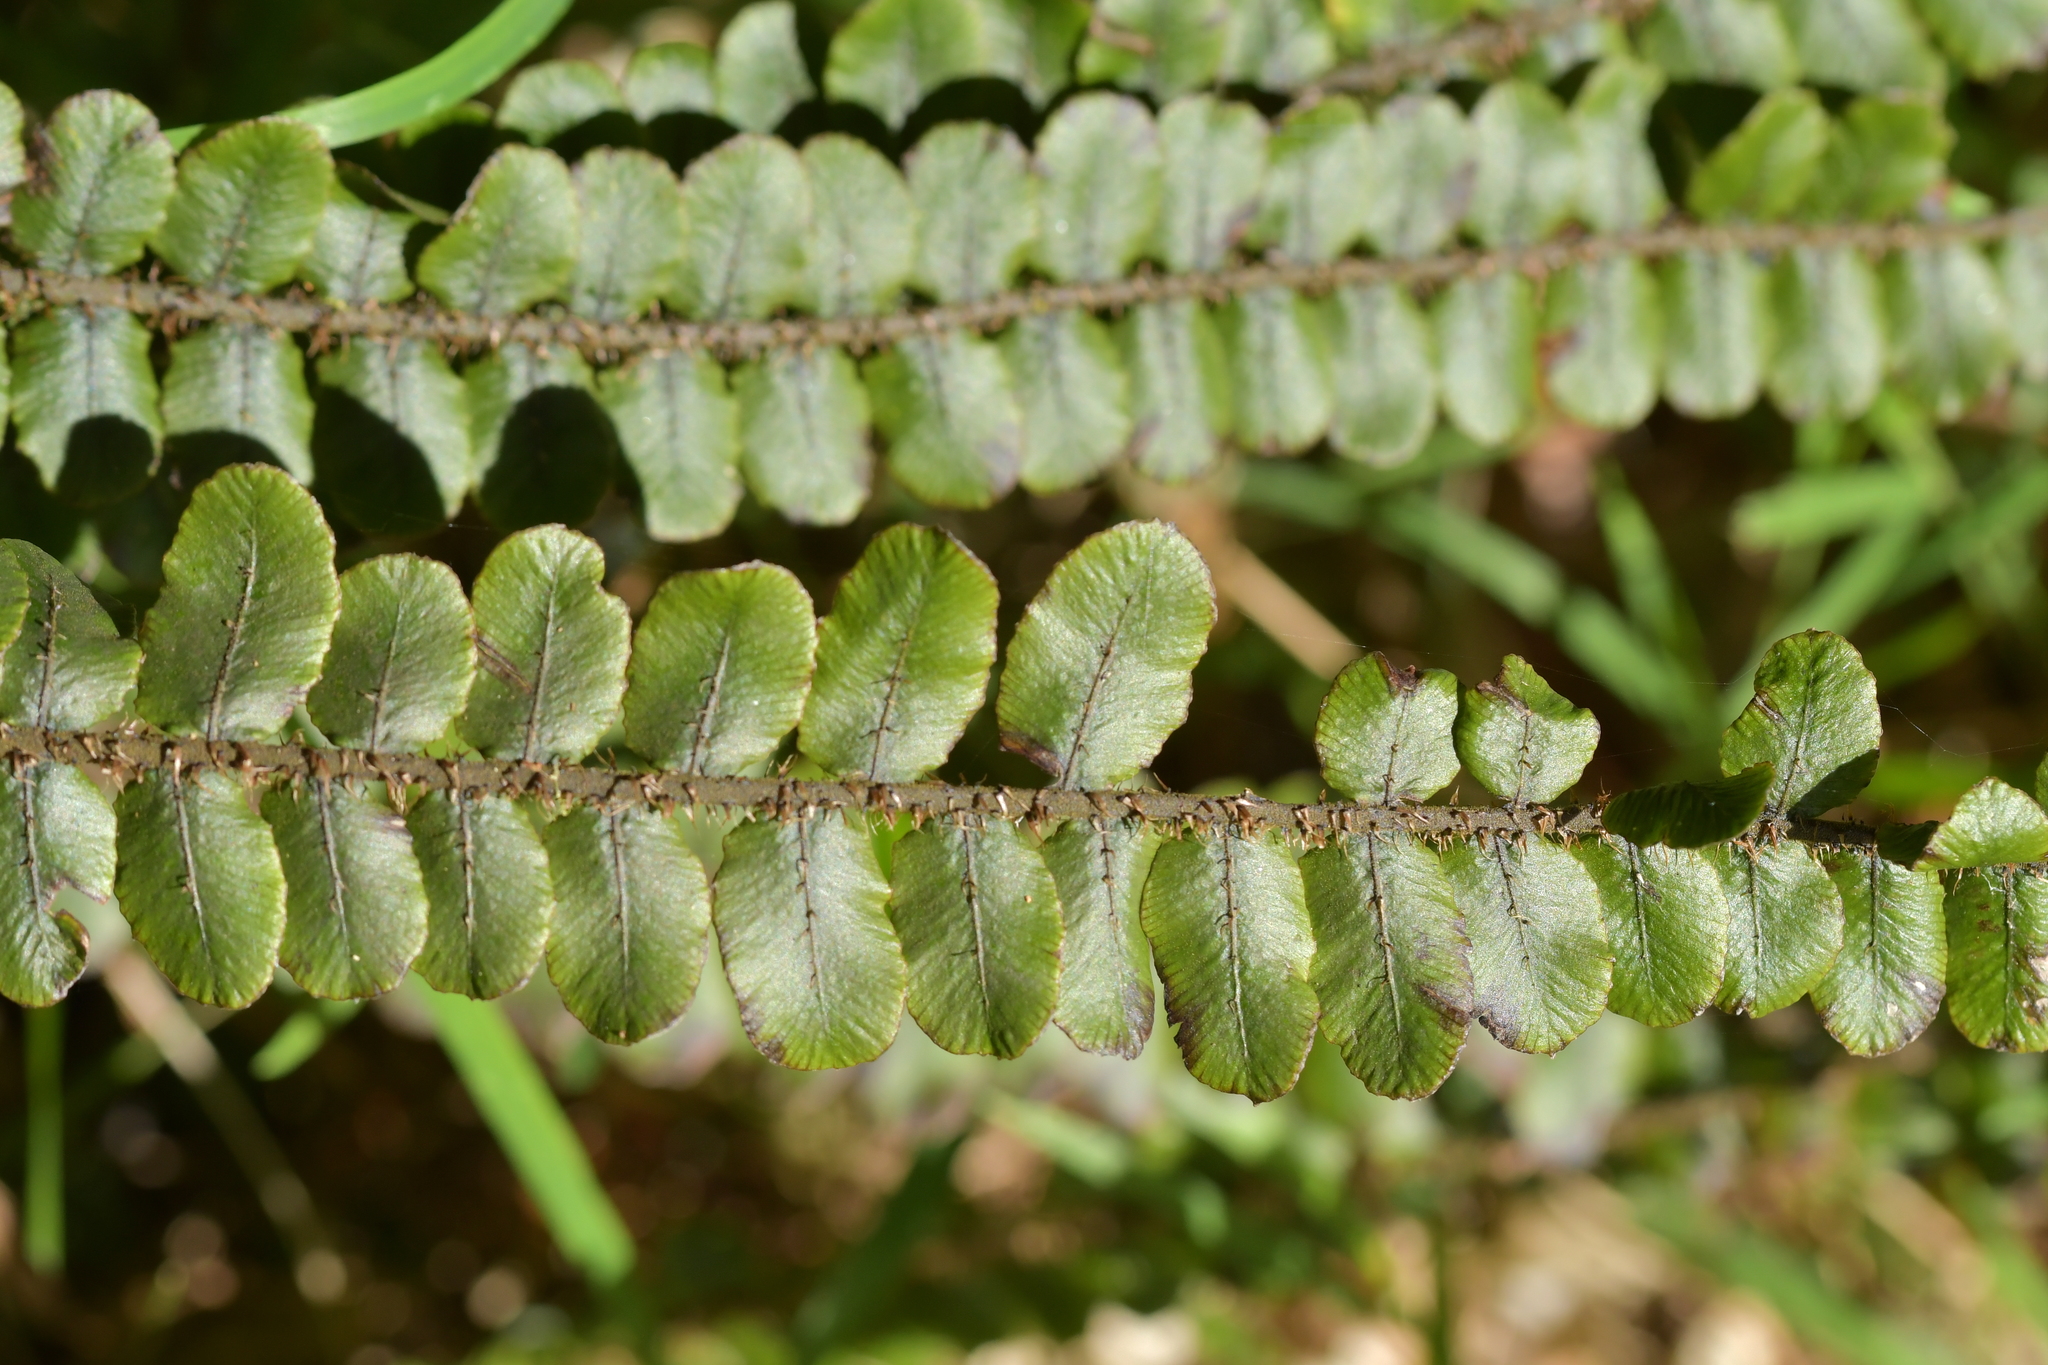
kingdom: Plantae
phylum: Tracheophyta
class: Polypodiopsida
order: Polypodiales
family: Blechnaceae
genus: Cranfillia
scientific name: Cranfillia fluviatilis
